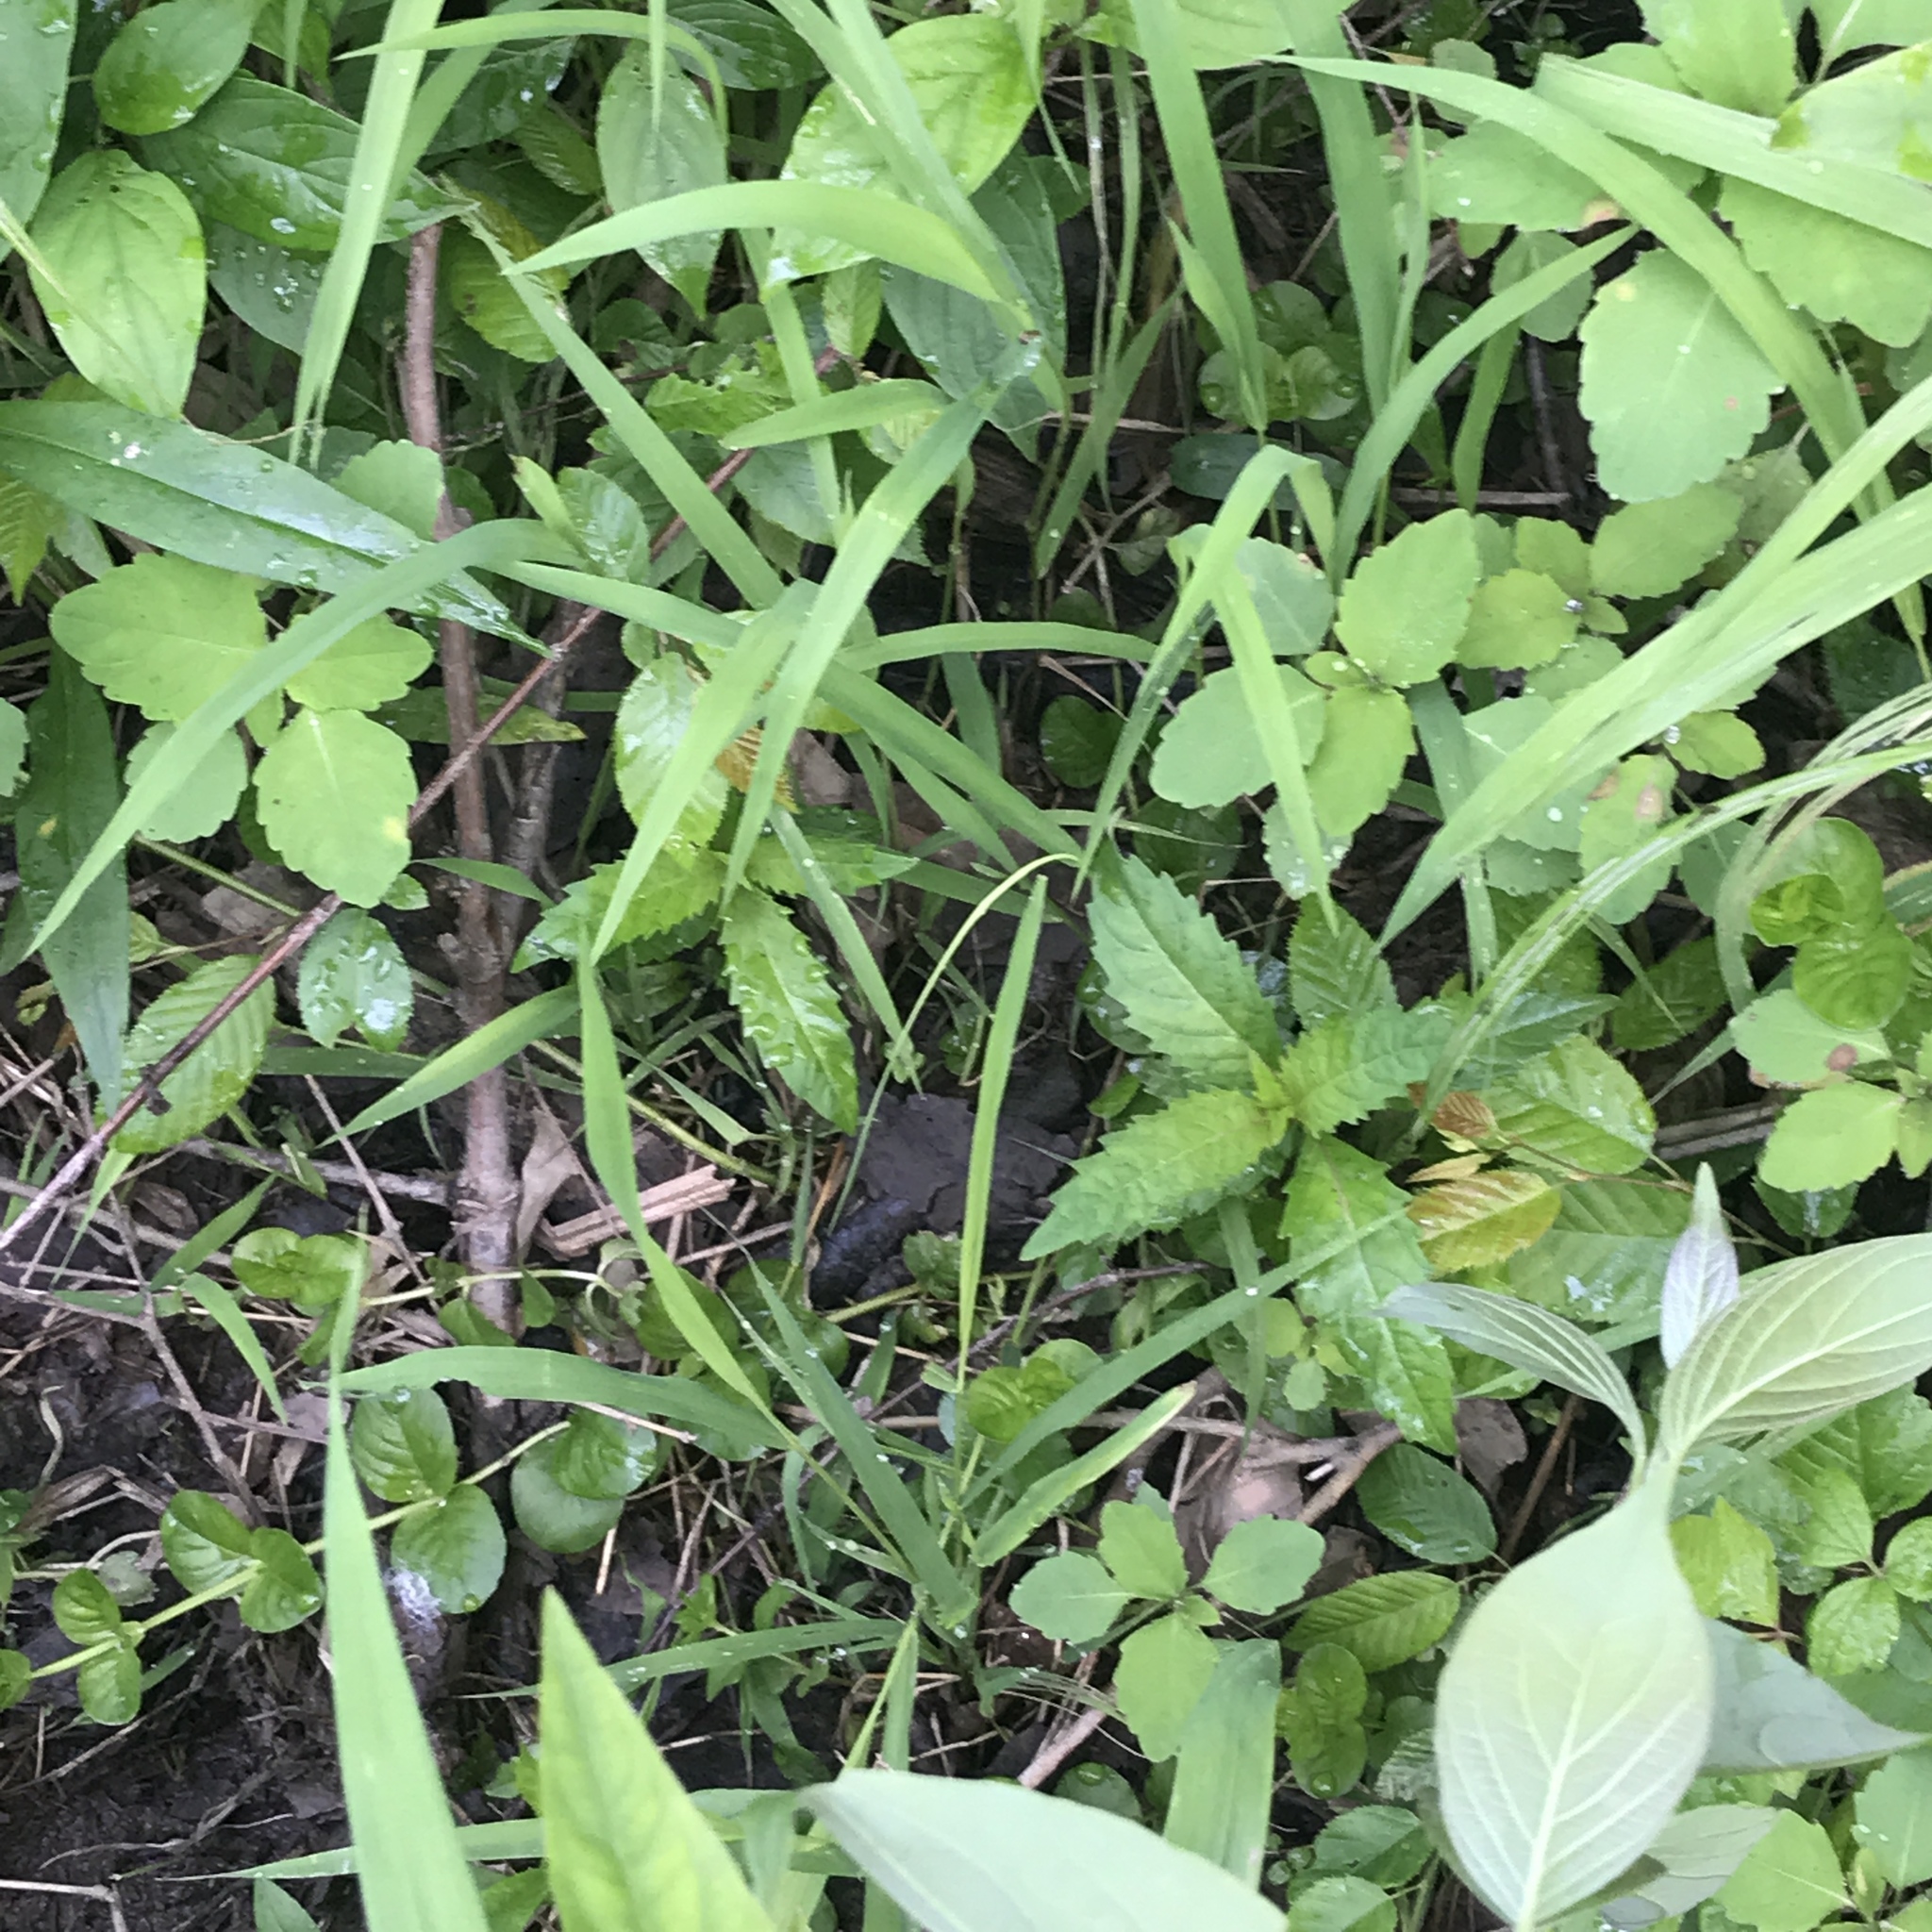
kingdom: Plantae
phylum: Tracheophyta
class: Magnoliopsida
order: Ericales
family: Primulaceae
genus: Lysimachia
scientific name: Lysimachia nummularia
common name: Moneywort
